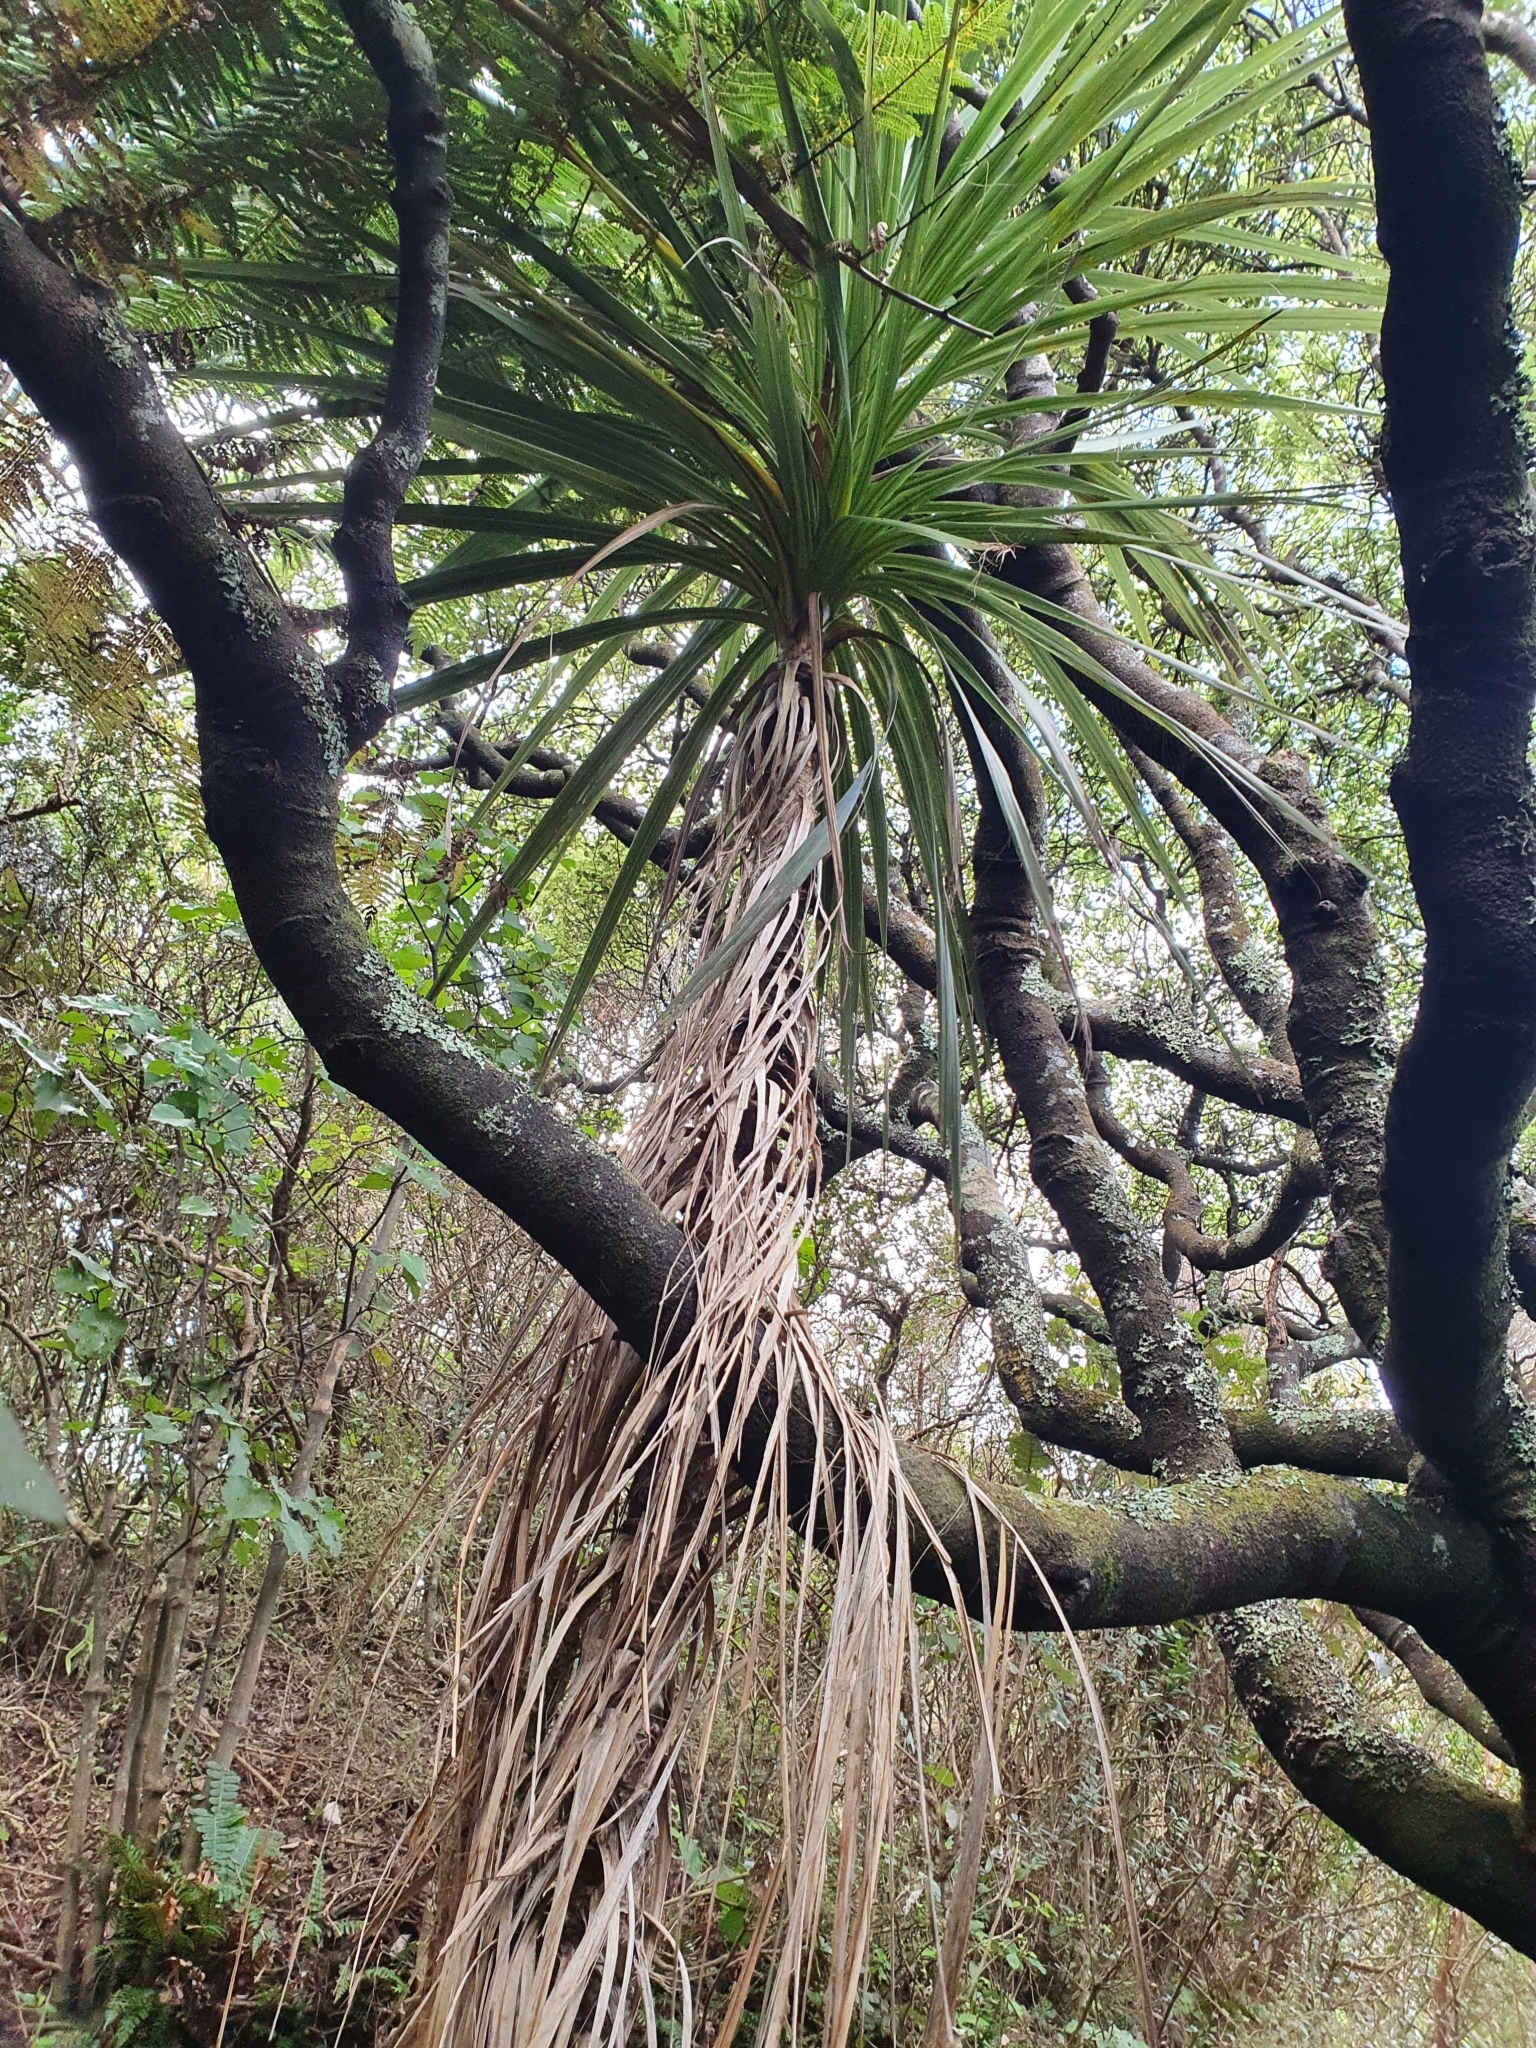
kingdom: Plantae
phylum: Tracheophyta
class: Liliopsida
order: Asparagales
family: Asparagaceae
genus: Cordyline
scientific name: Cordyline australis
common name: Cabbage-palm
